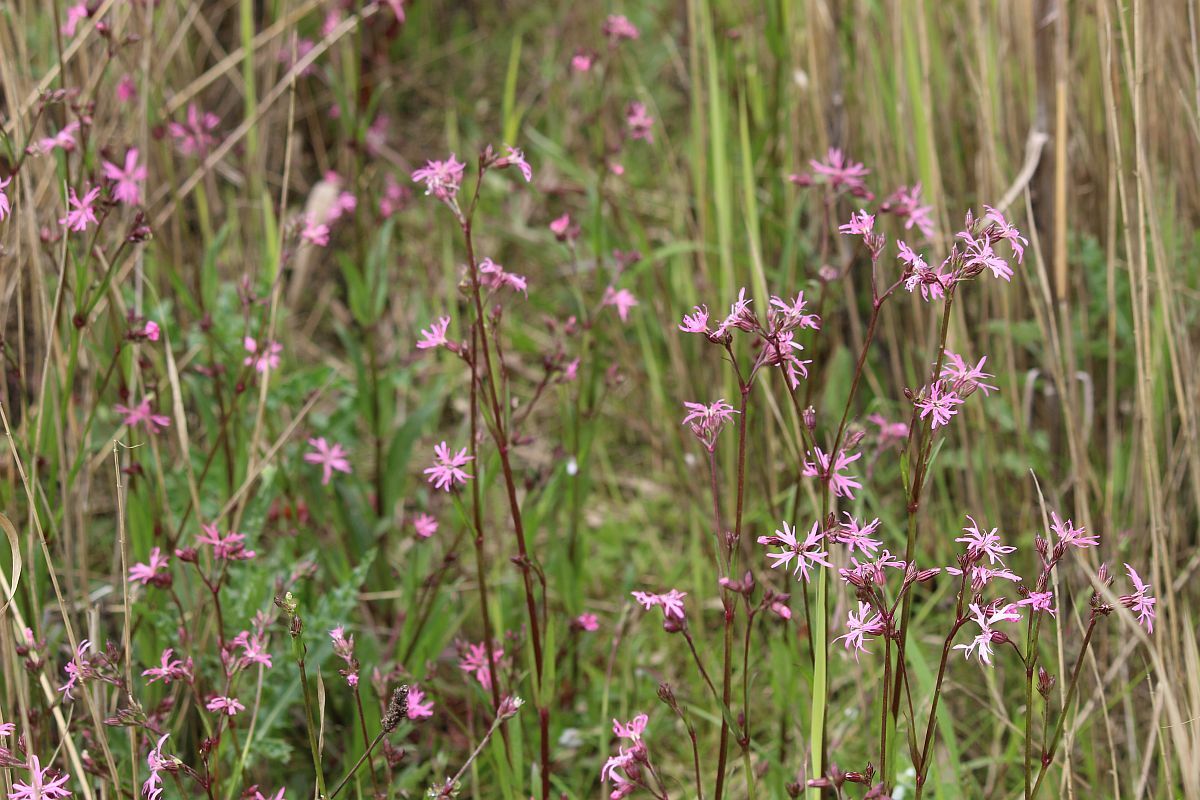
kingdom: Plantae
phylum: Tracheophyta
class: Magnoliopsida
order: Caryophyllales
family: Caryophyllaceae
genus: Silene
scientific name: Silene flos-cuculi
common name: Ragged-robin
